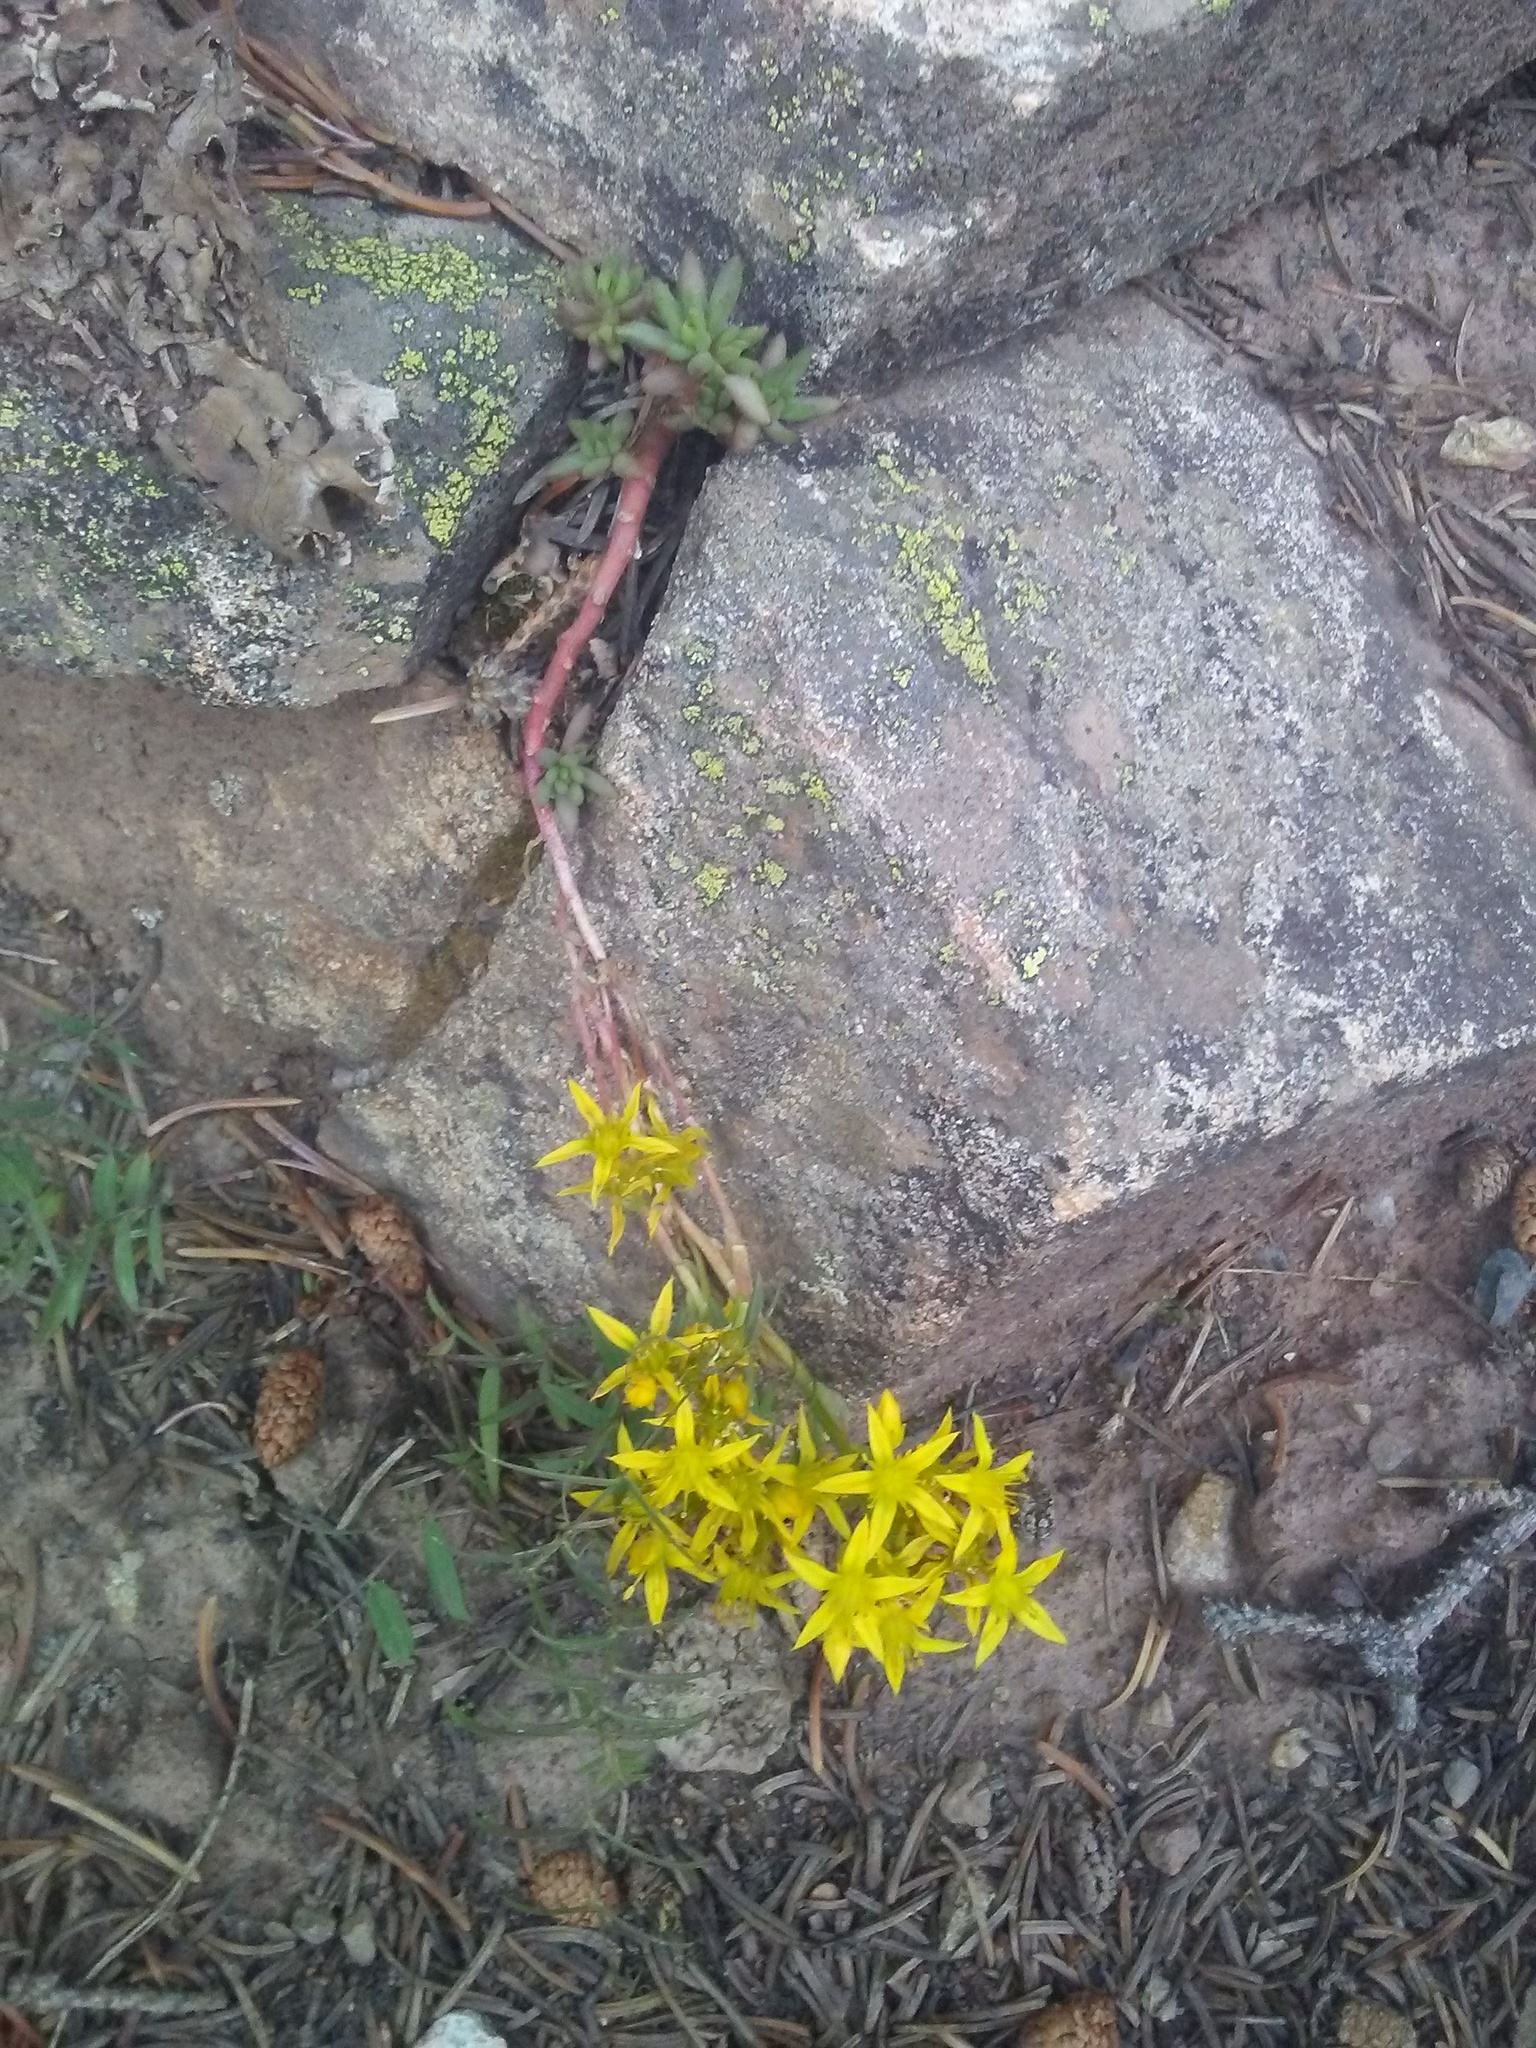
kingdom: Plantae
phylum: Tracheophyta
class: Magnoliopsida
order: Saxifragales
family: Crassulaceae
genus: Sedum
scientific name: Sedum lanceolatum
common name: Common stonecrop
